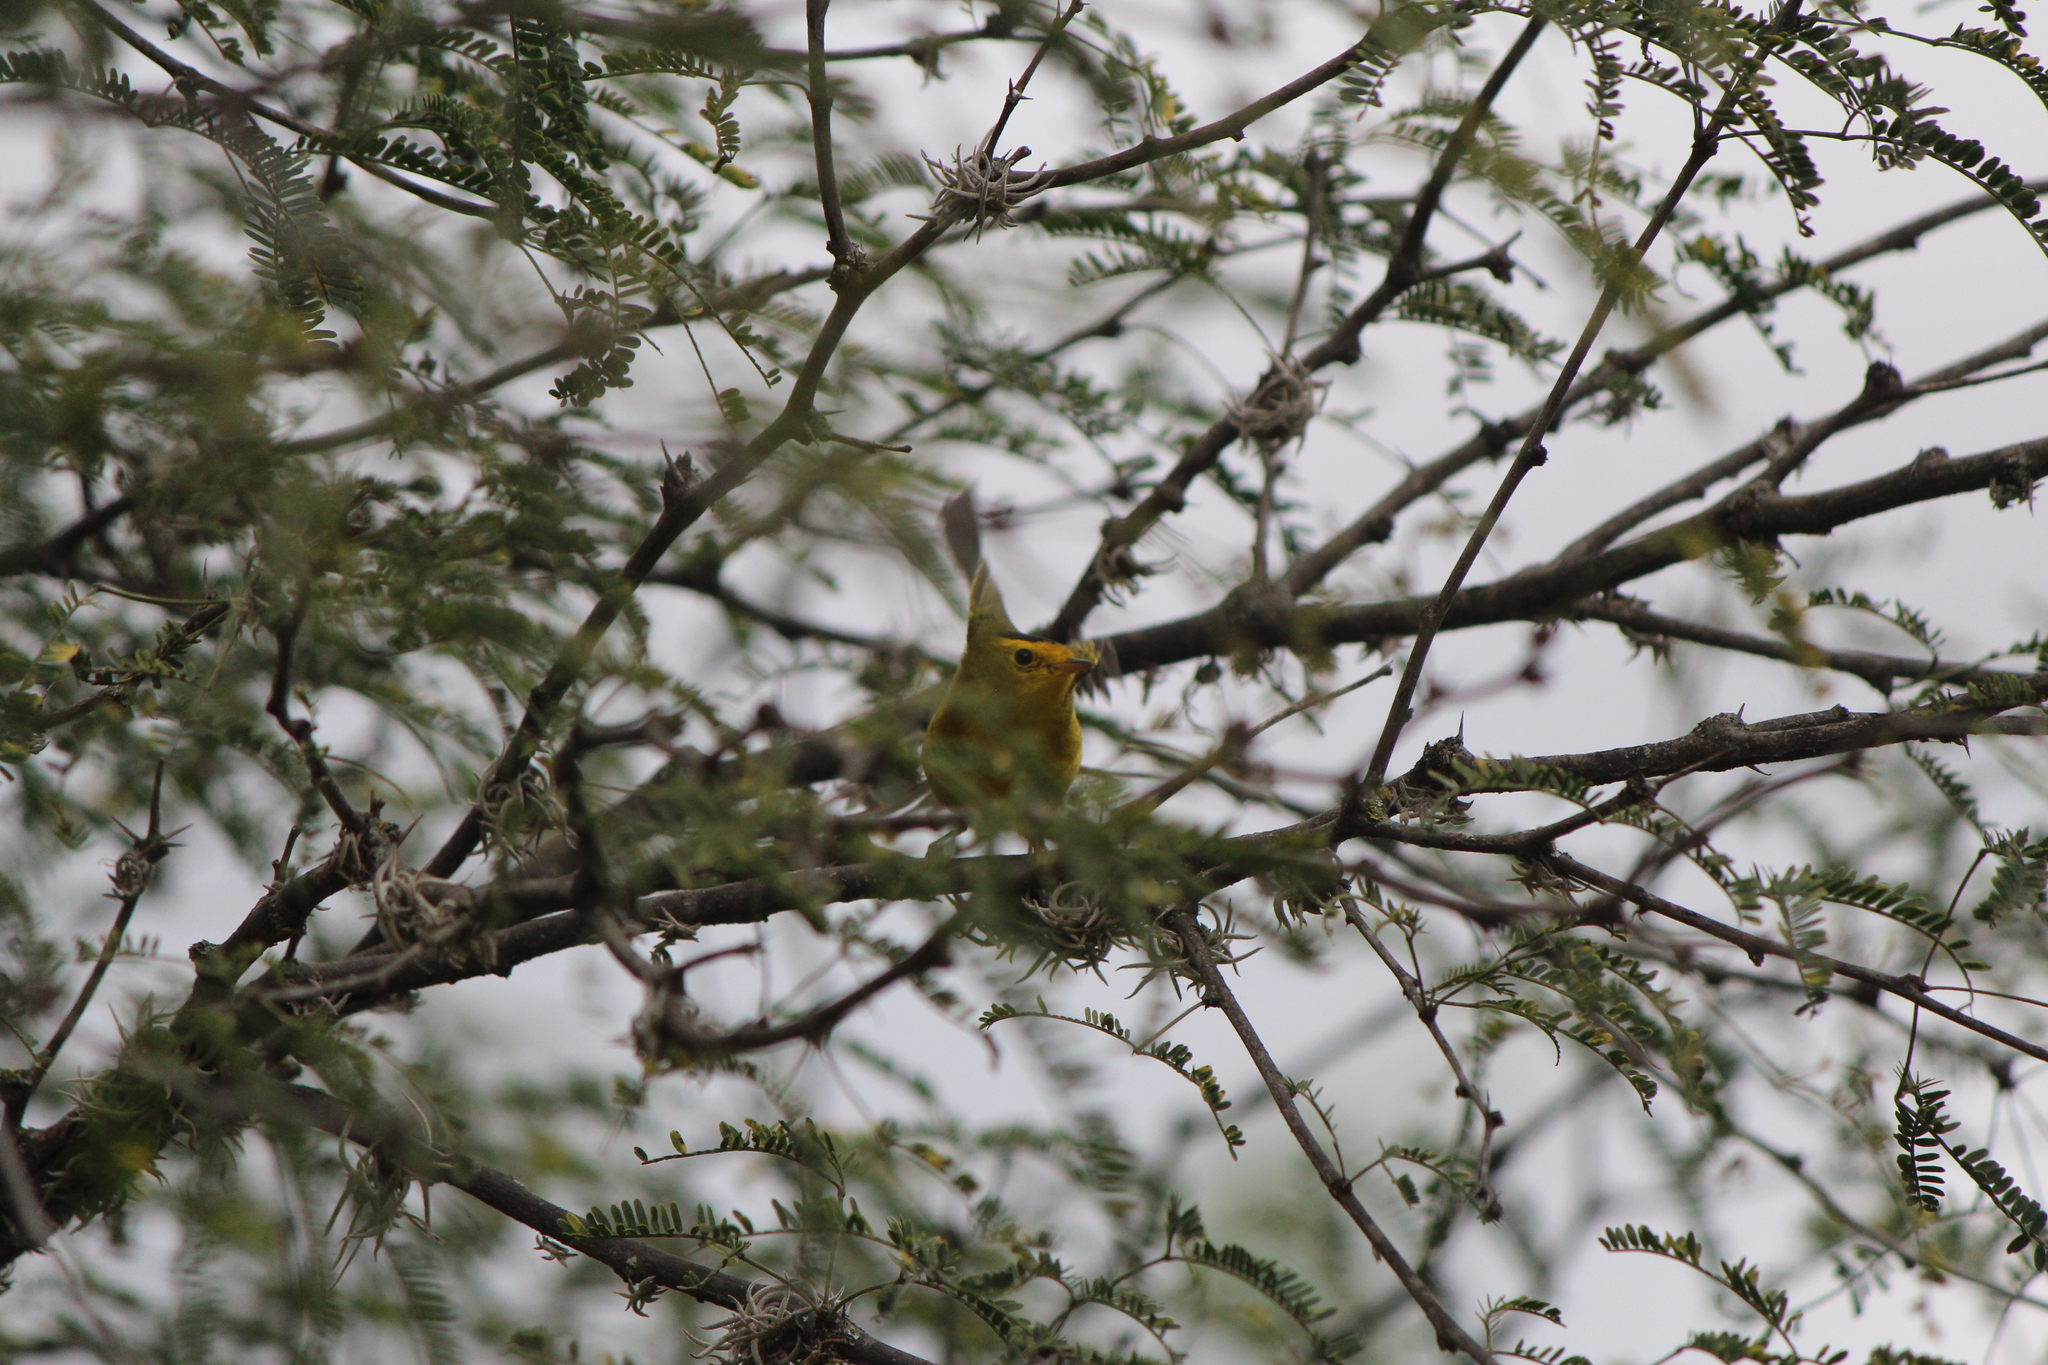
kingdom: Animalia
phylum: Chordata
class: Aves
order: Passeriformes
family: Parulidae
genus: Cardellina
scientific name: Cardellina pusilla
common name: Wilson's warbler
